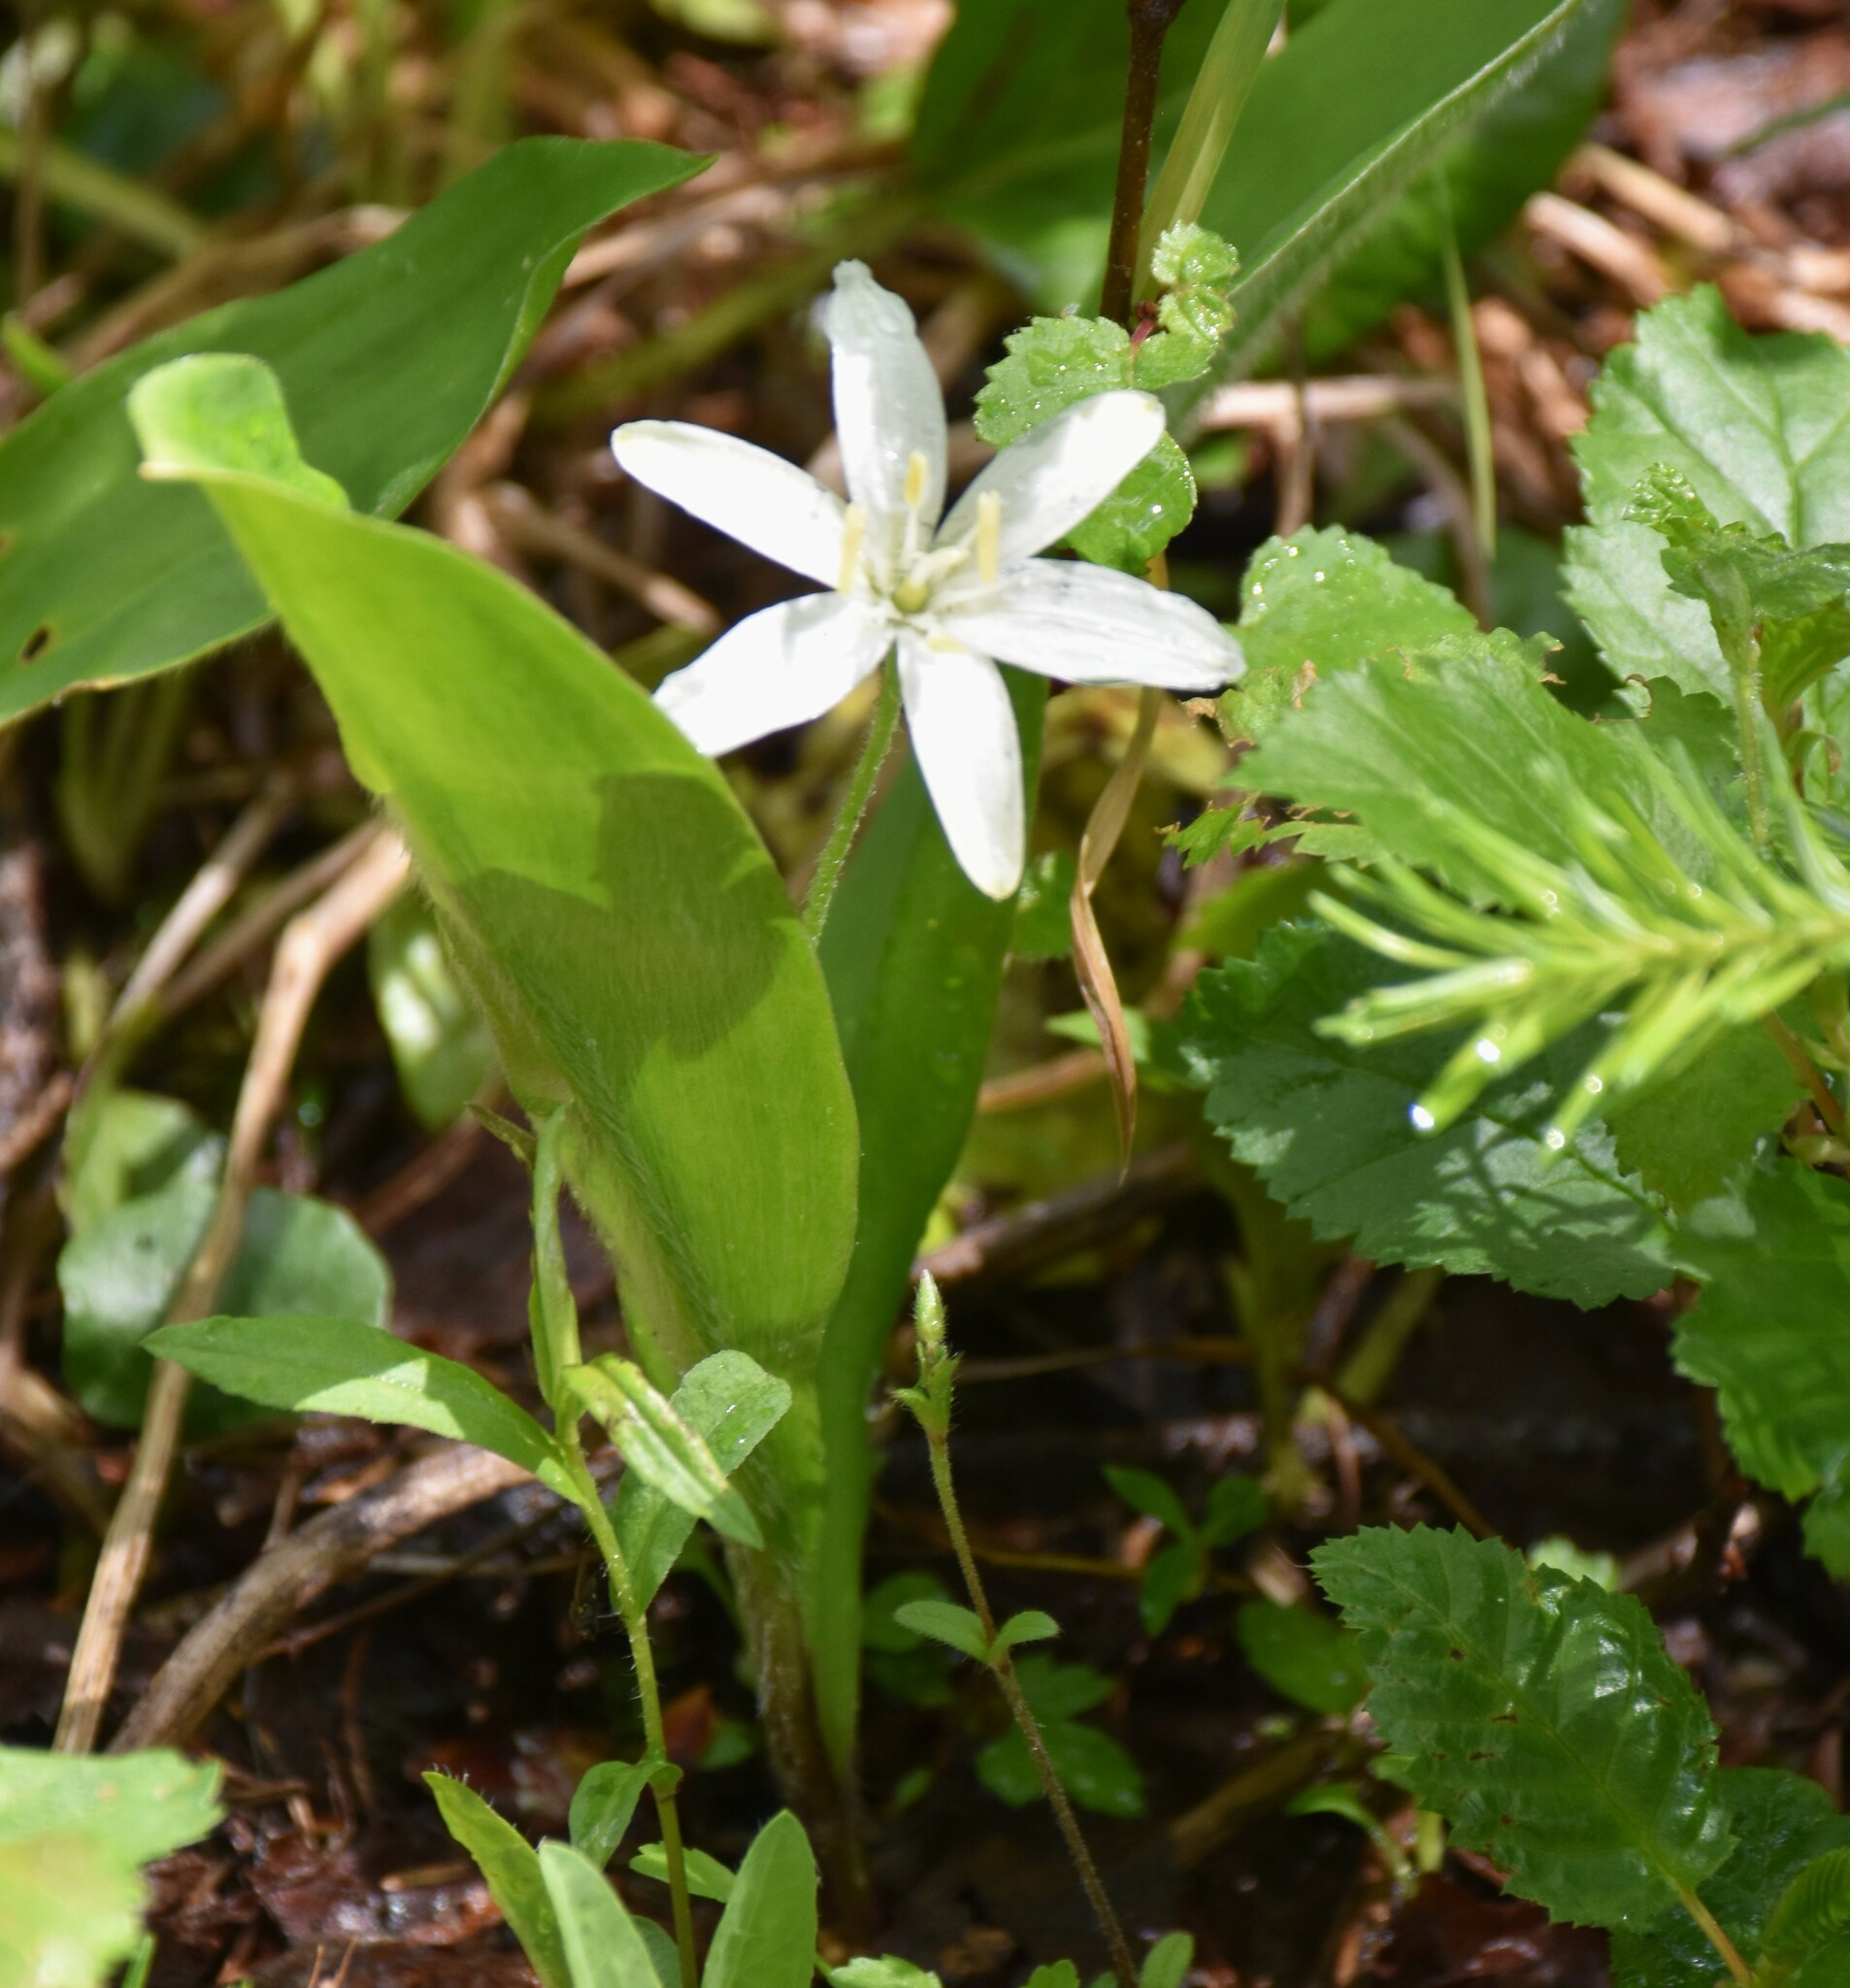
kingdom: Plantae
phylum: Tracheophyta
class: Liliopsida
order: Liliales
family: Liliaceae
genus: Clintonia
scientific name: Clintonia uniflora
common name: Queen's cup
